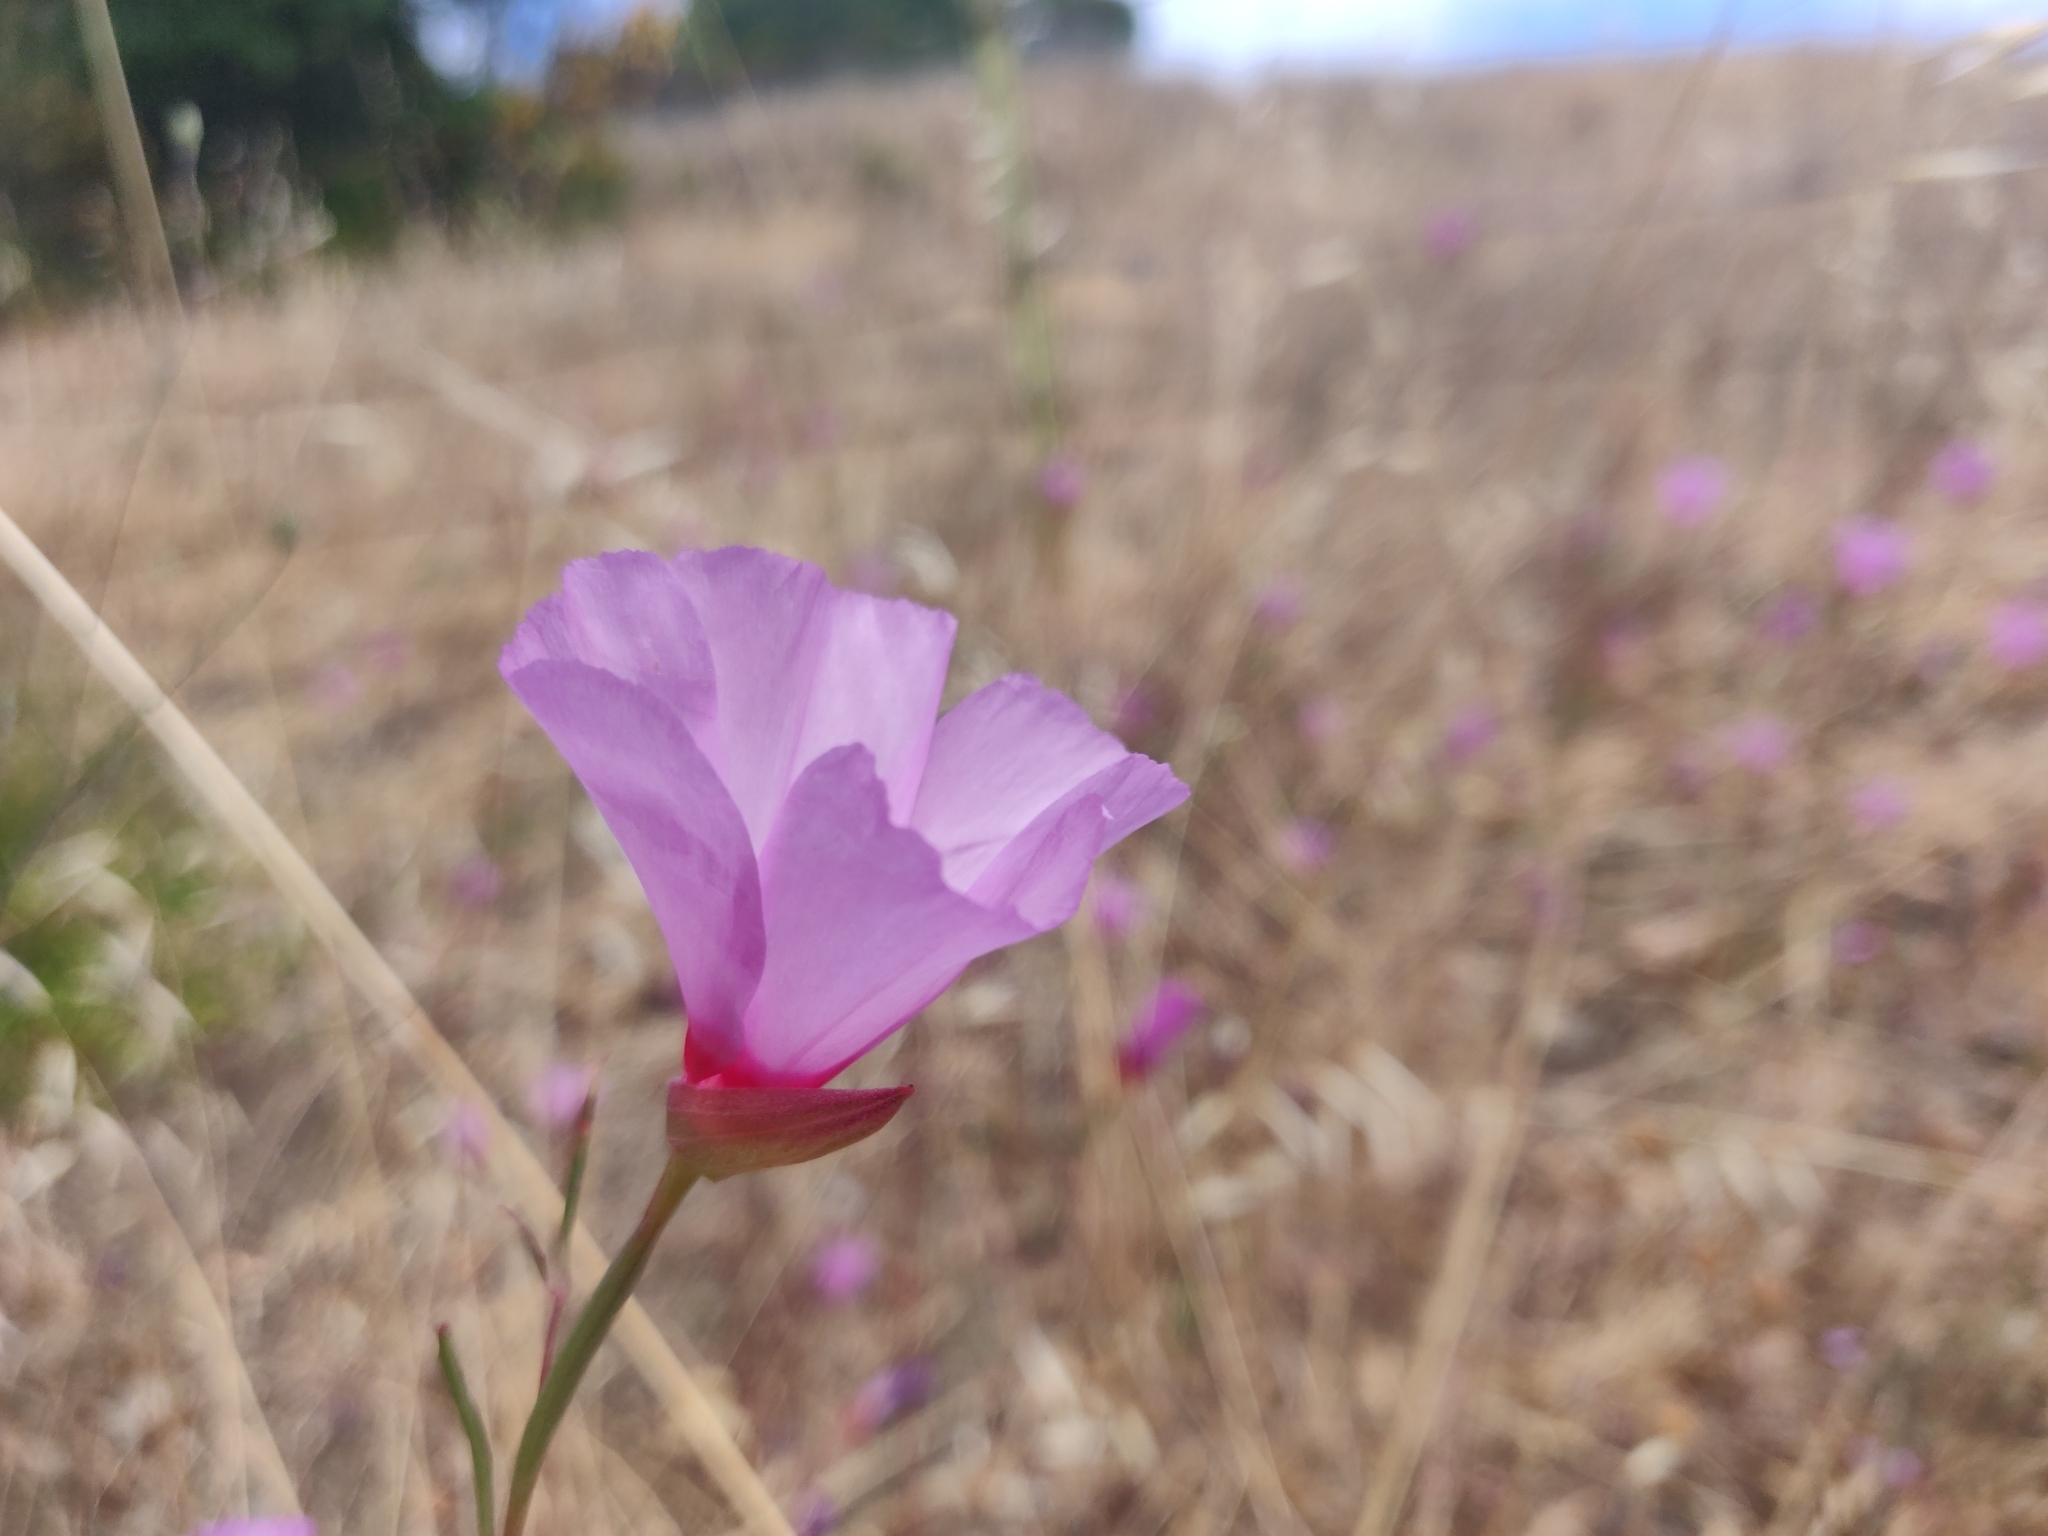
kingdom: Plantae
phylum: Tracheophyta
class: Magnoliopsida
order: Myrtales
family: Onagraceae
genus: Clarkia
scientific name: Clarkia rubicunda
